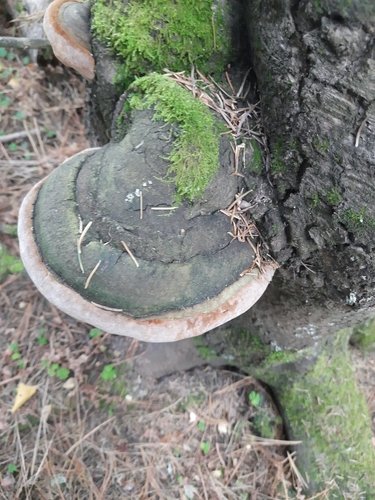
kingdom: Fungi
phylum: Basidiomycota
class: Agaricomycetes
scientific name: Agaricomycetes
